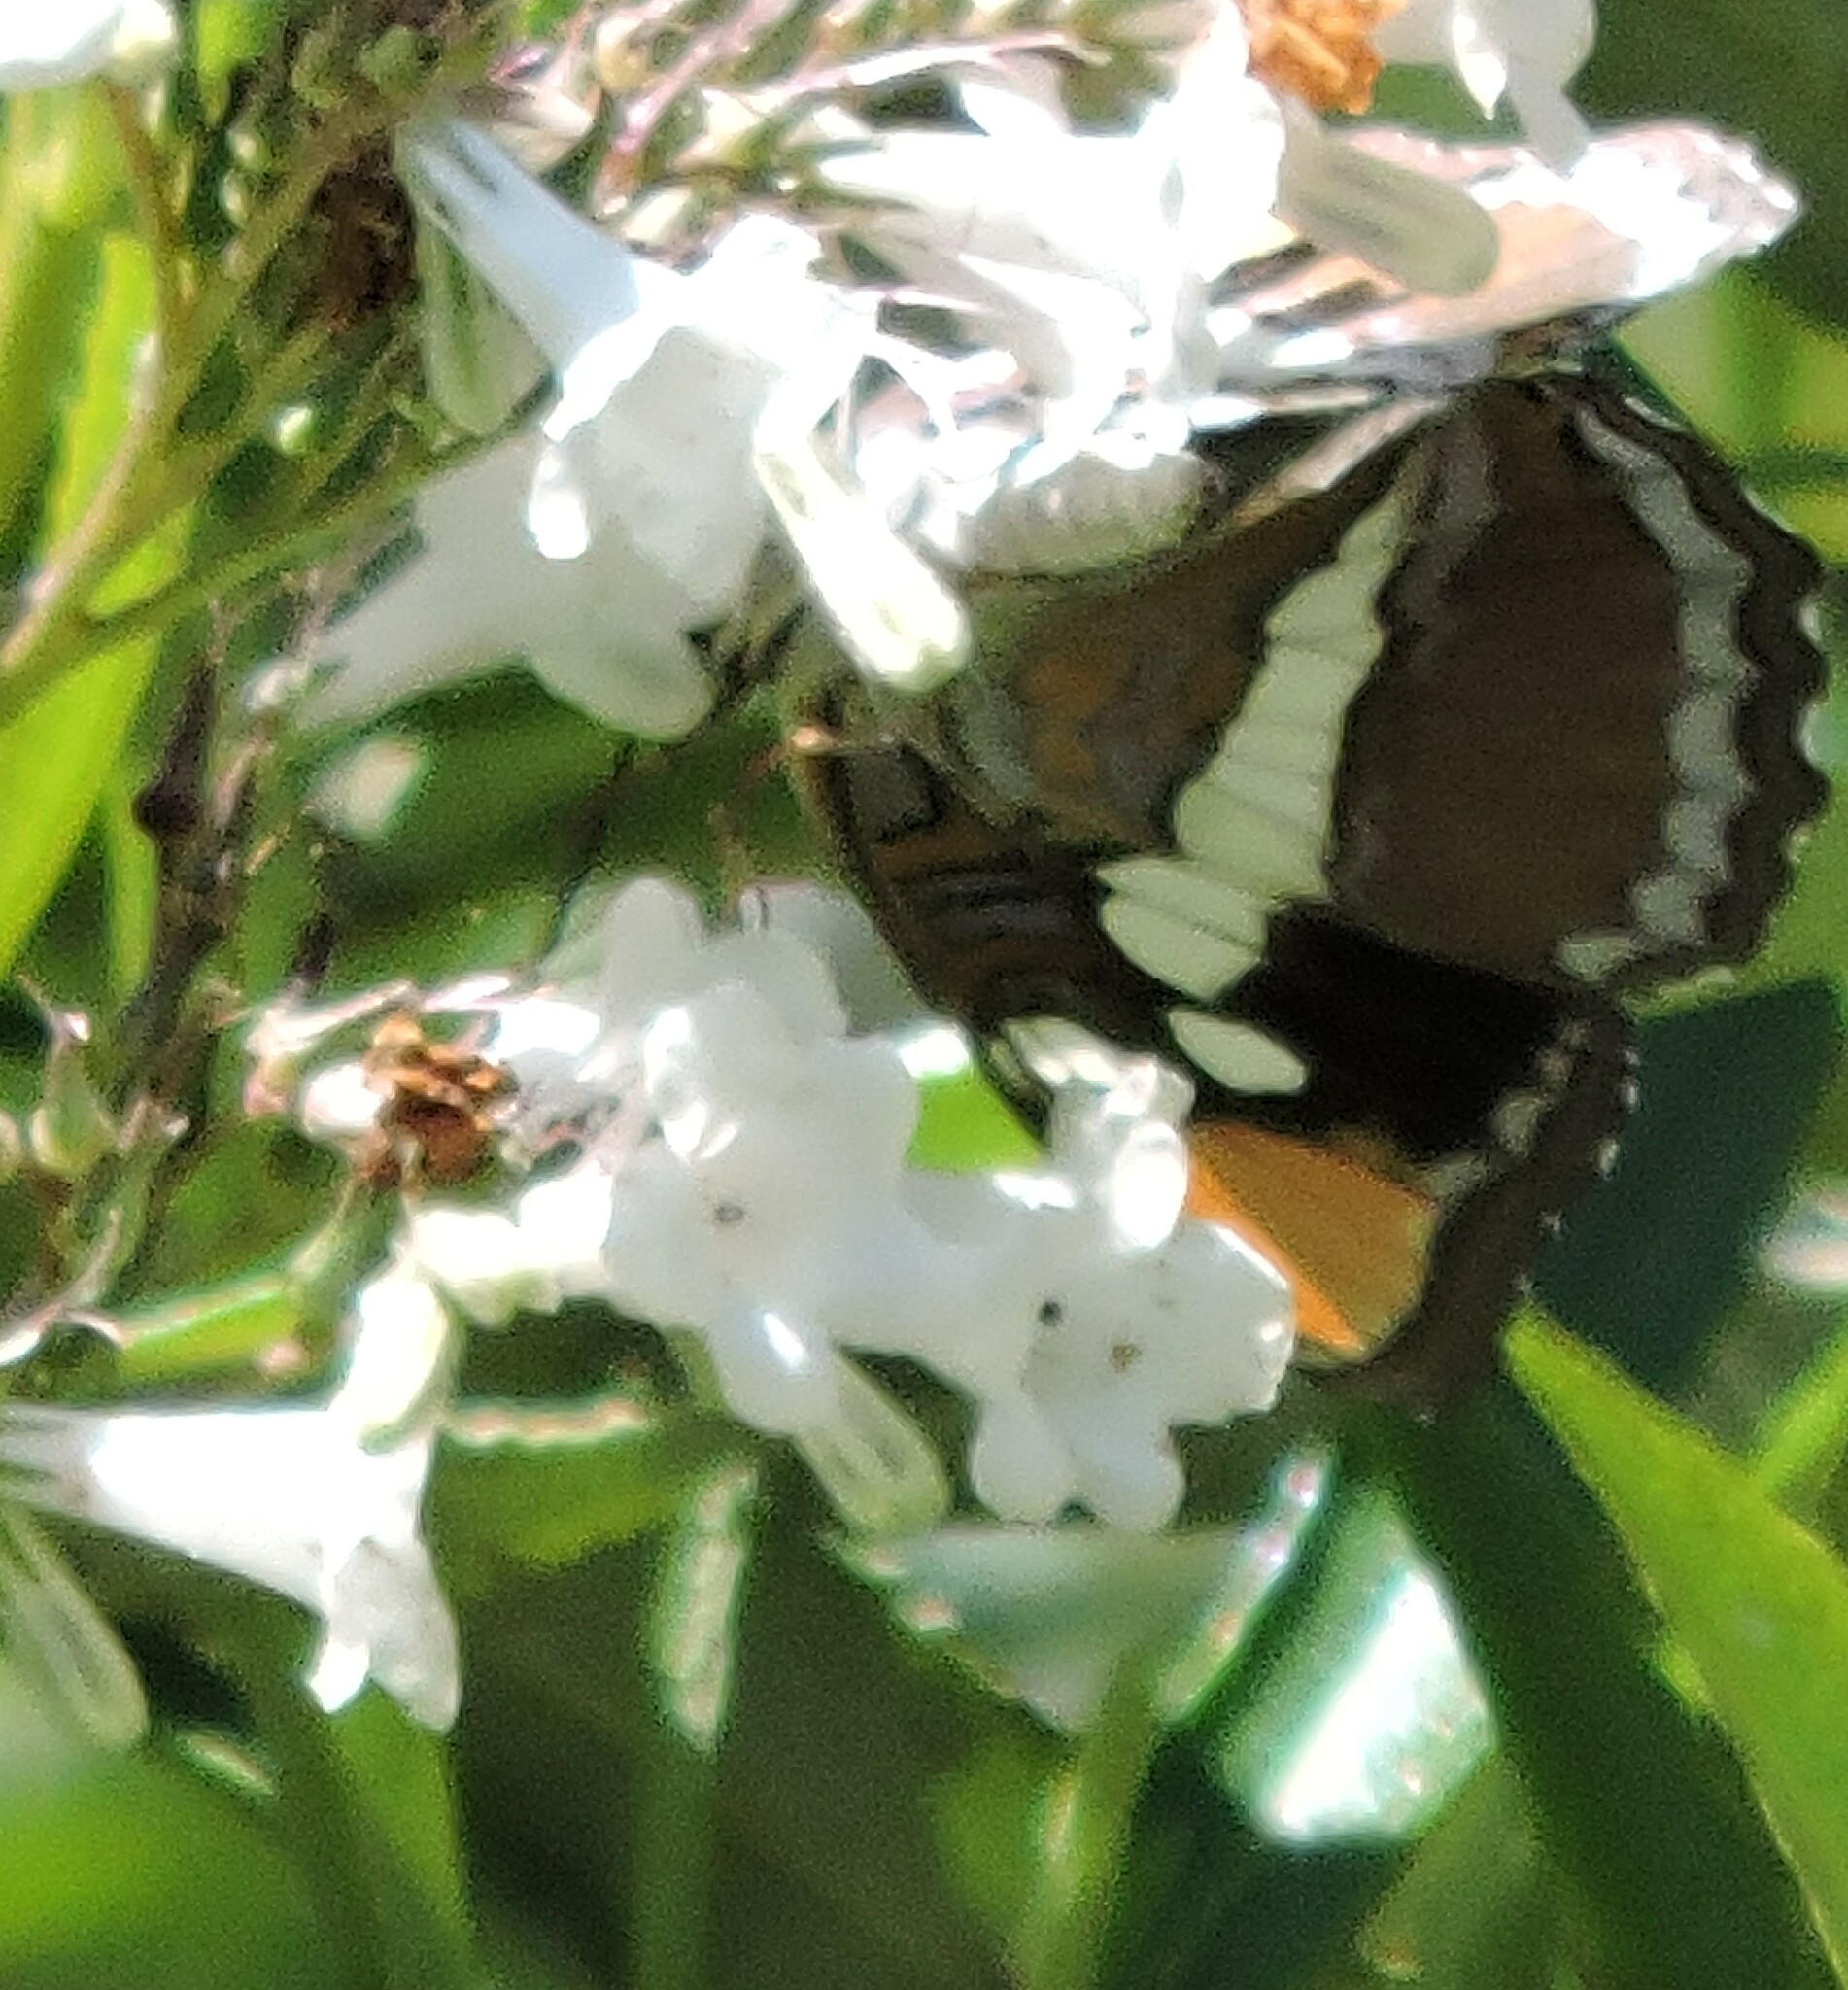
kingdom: Animalia
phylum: Arthropoda
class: Insecta
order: Lepidoptera
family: Nymphalidae
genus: Limenitis
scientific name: Limenitis bredowii
